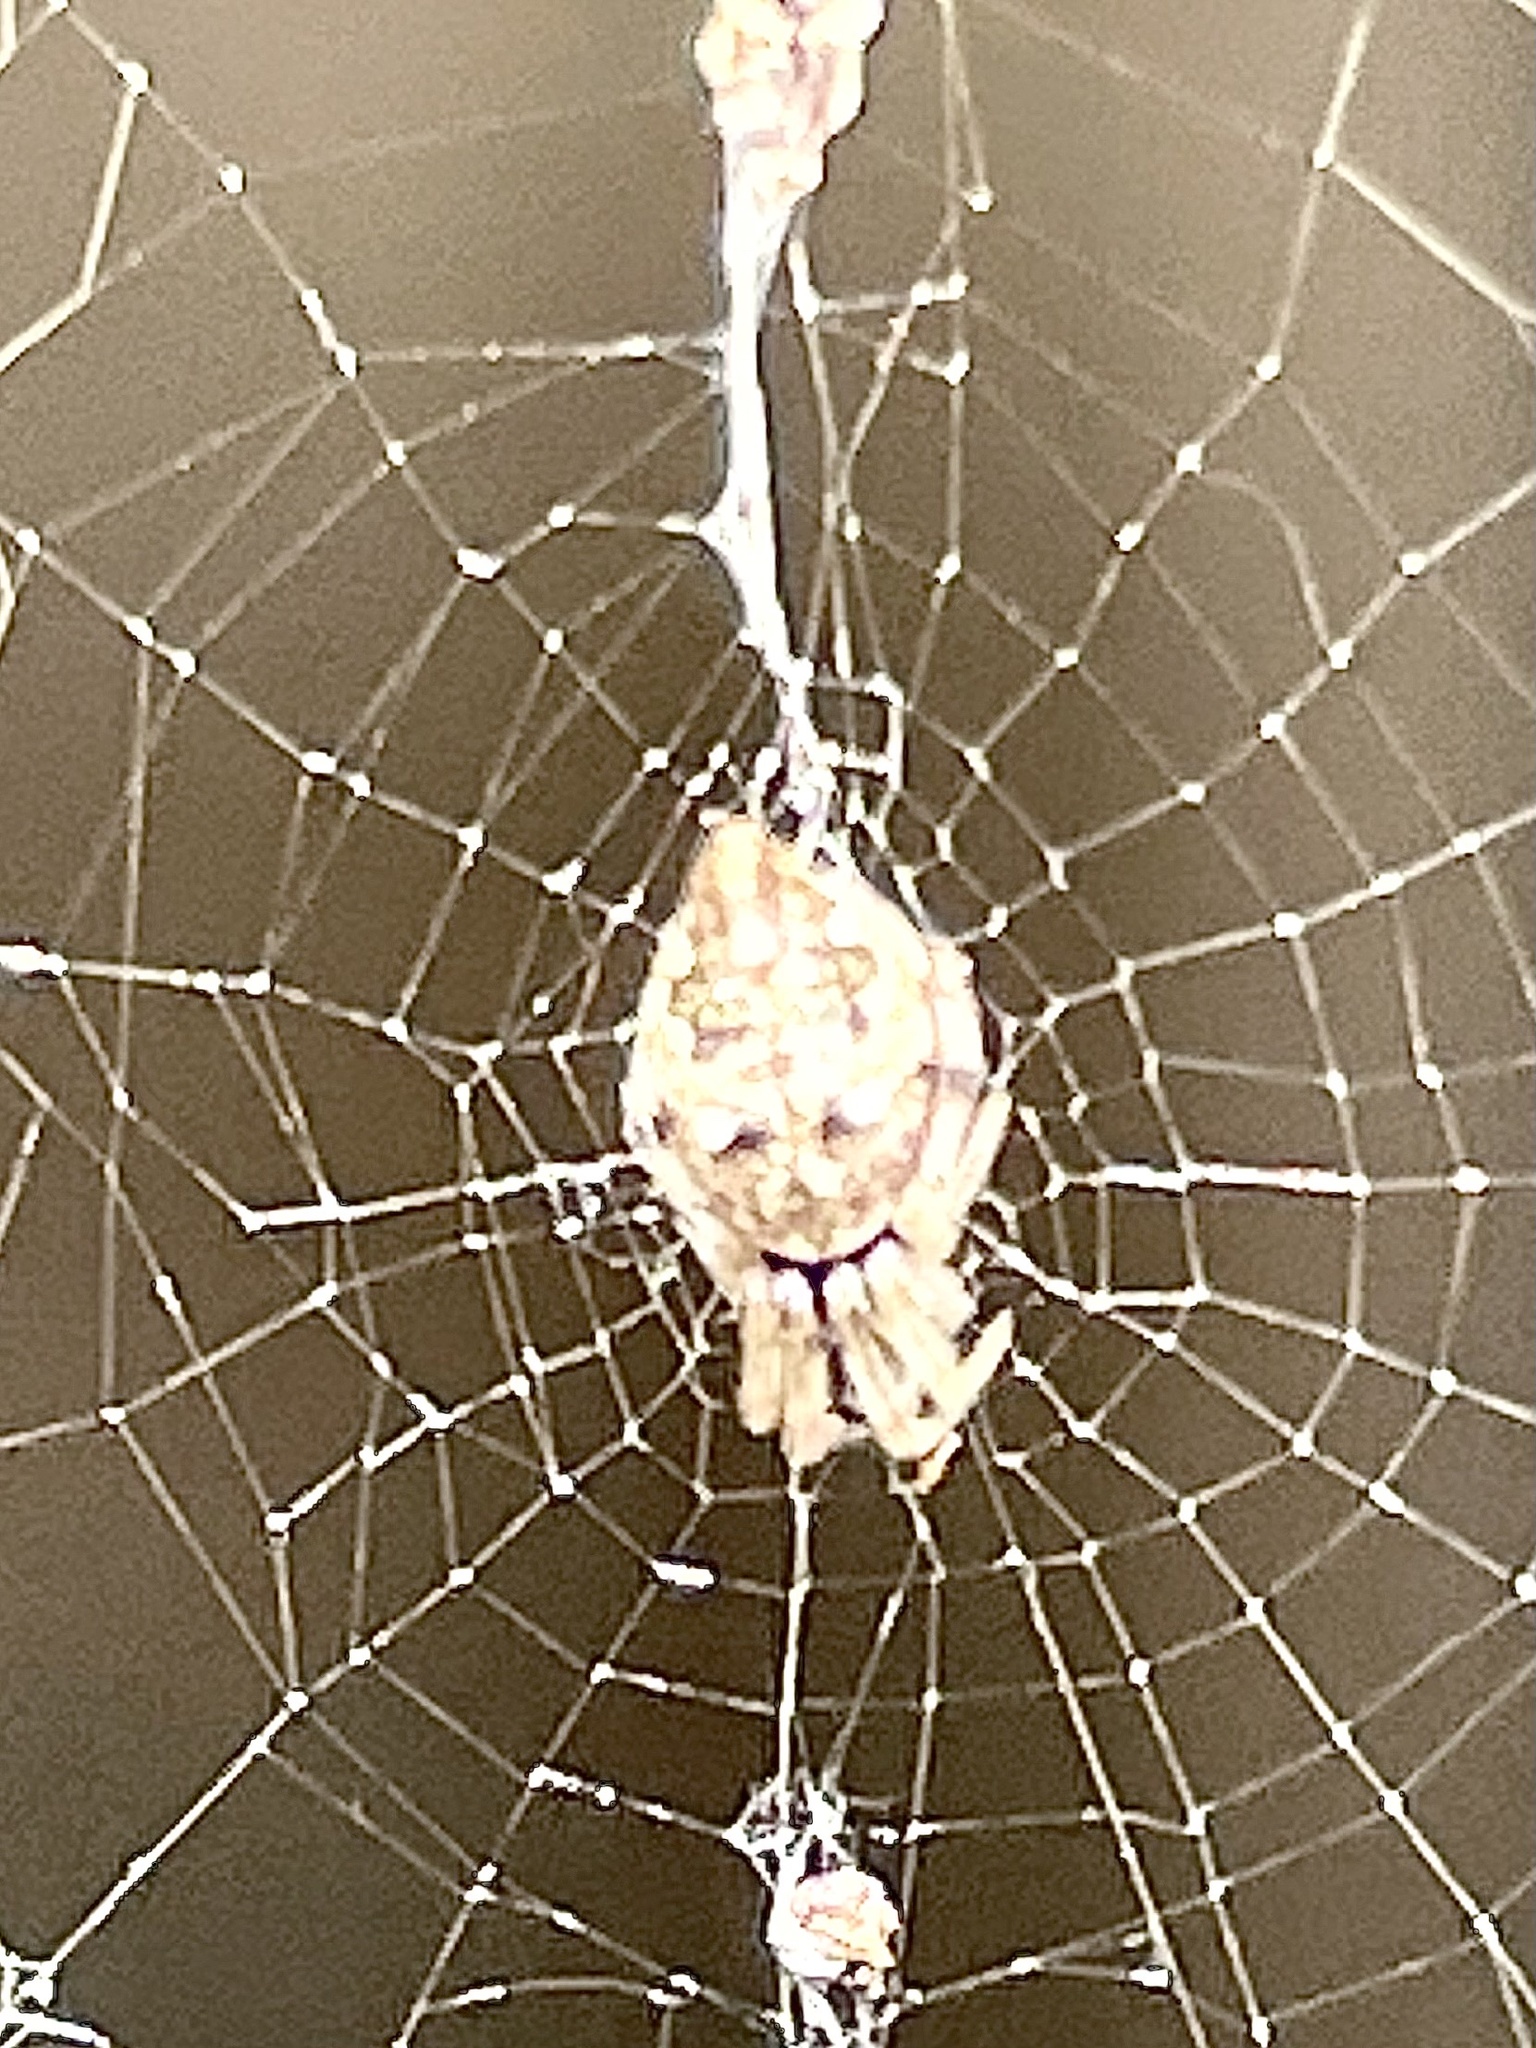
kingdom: Animalia
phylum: Arthropoda
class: Arachnida
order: Araneae
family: Araneidae
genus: Cyclosa
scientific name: Cyclosa turbinata
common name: Orb weavers
